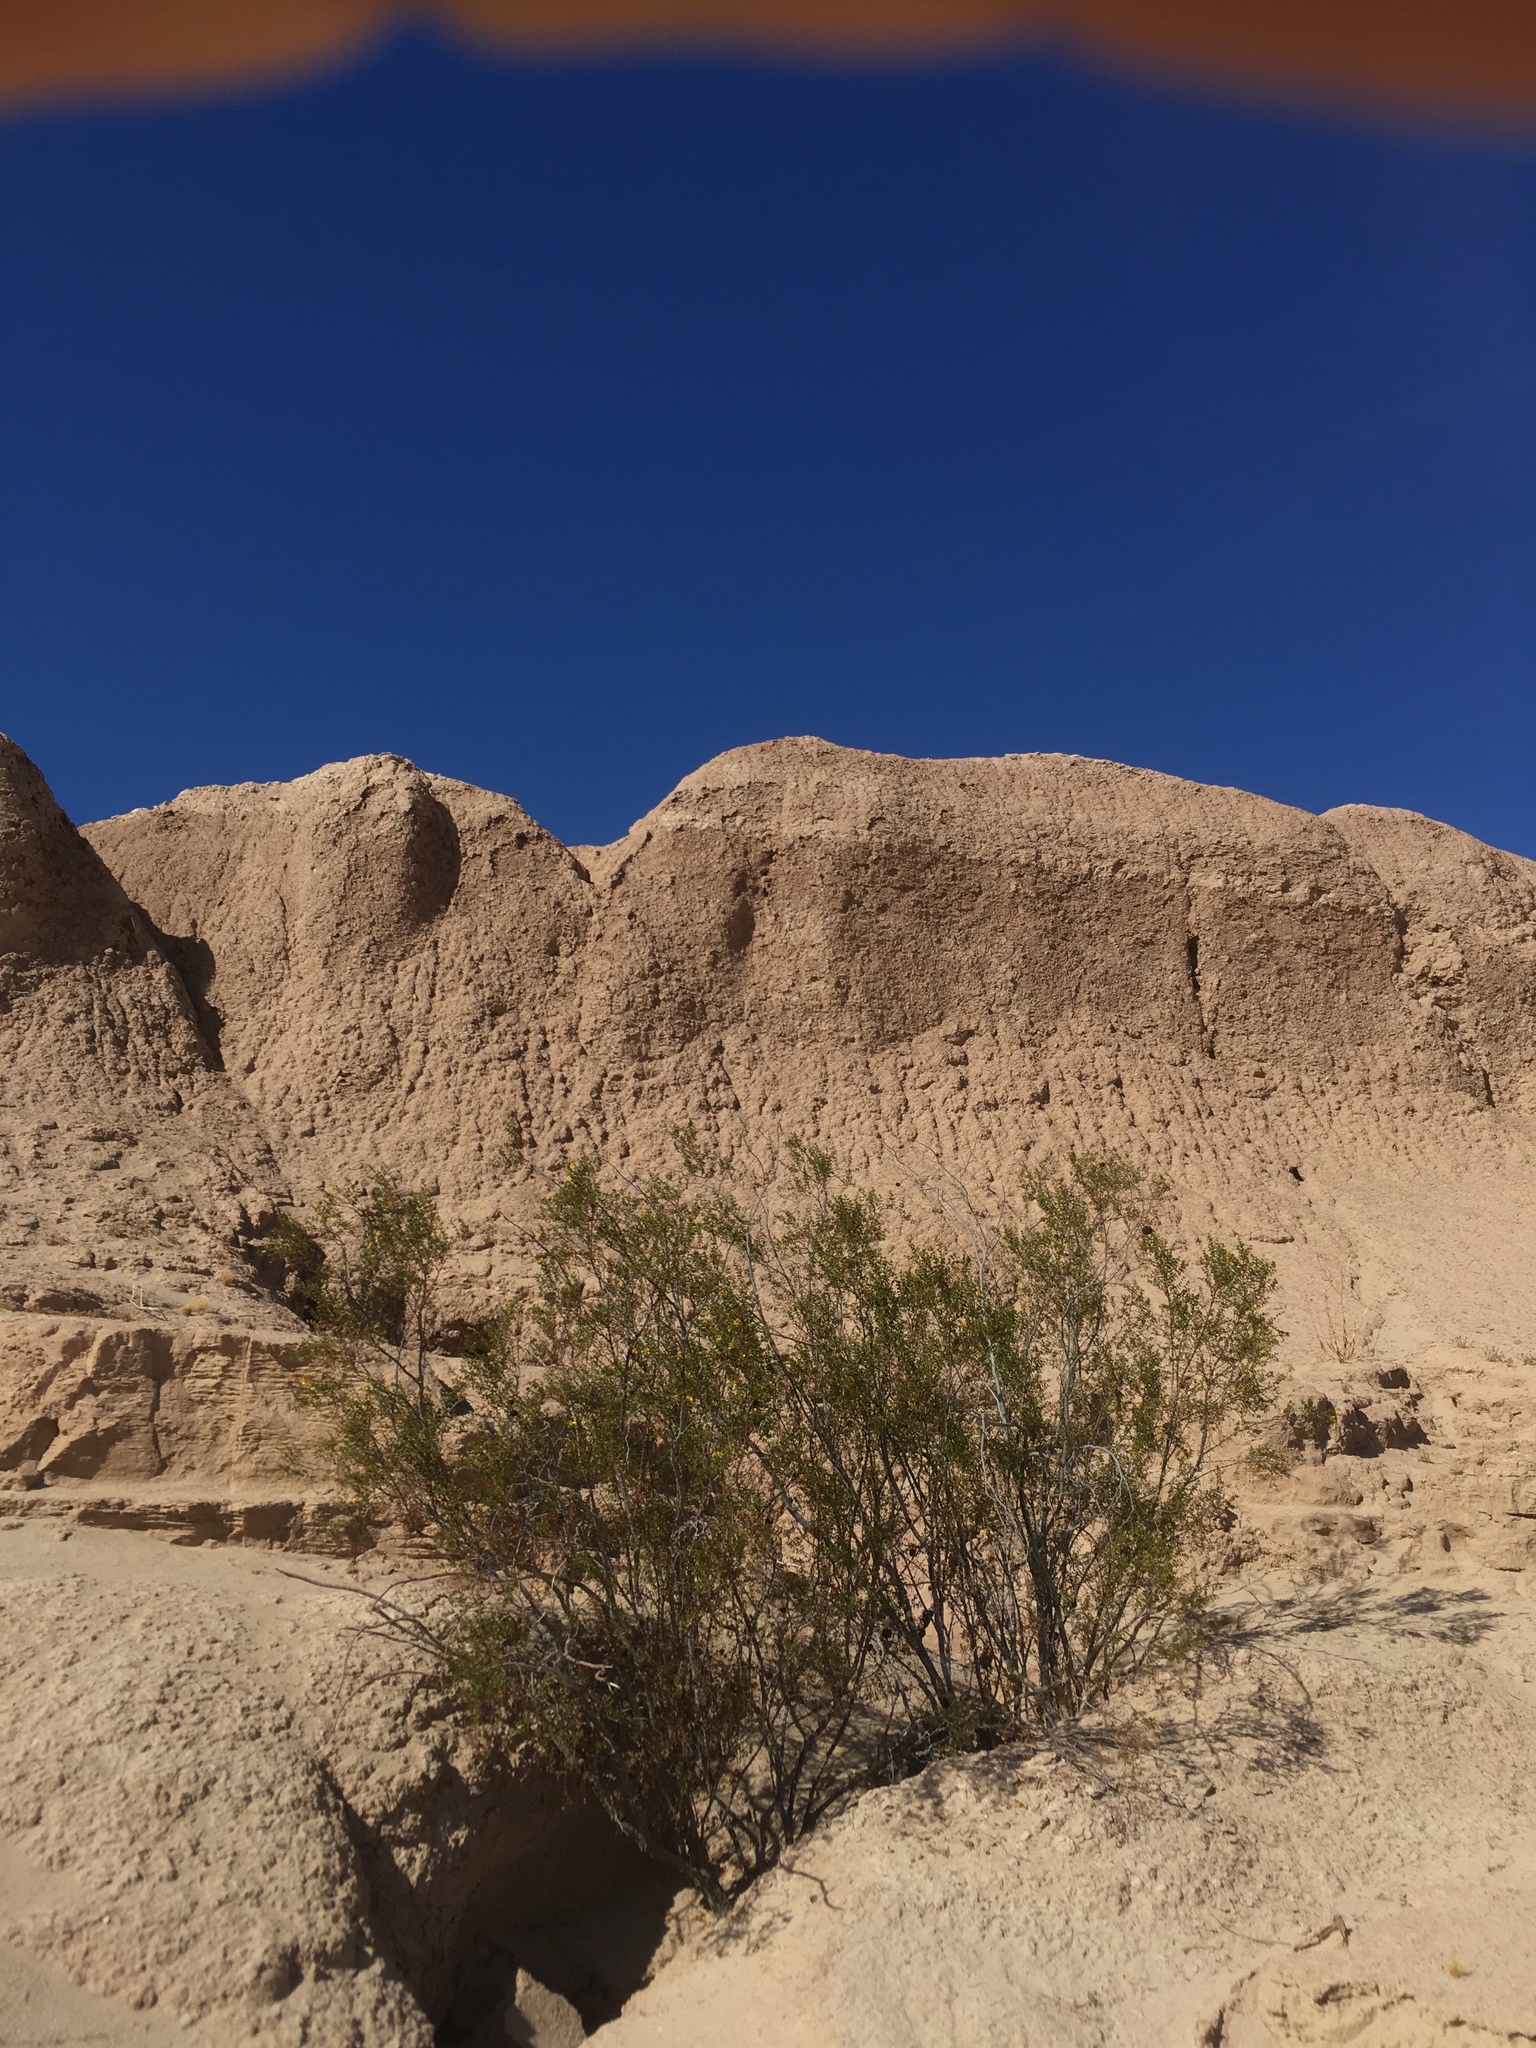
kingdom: Animalia
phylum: Arthropoda
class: Insecta
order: Diptera
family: Cecidomyiidae
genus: Asphondylia
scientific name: Asphondylia auripila
